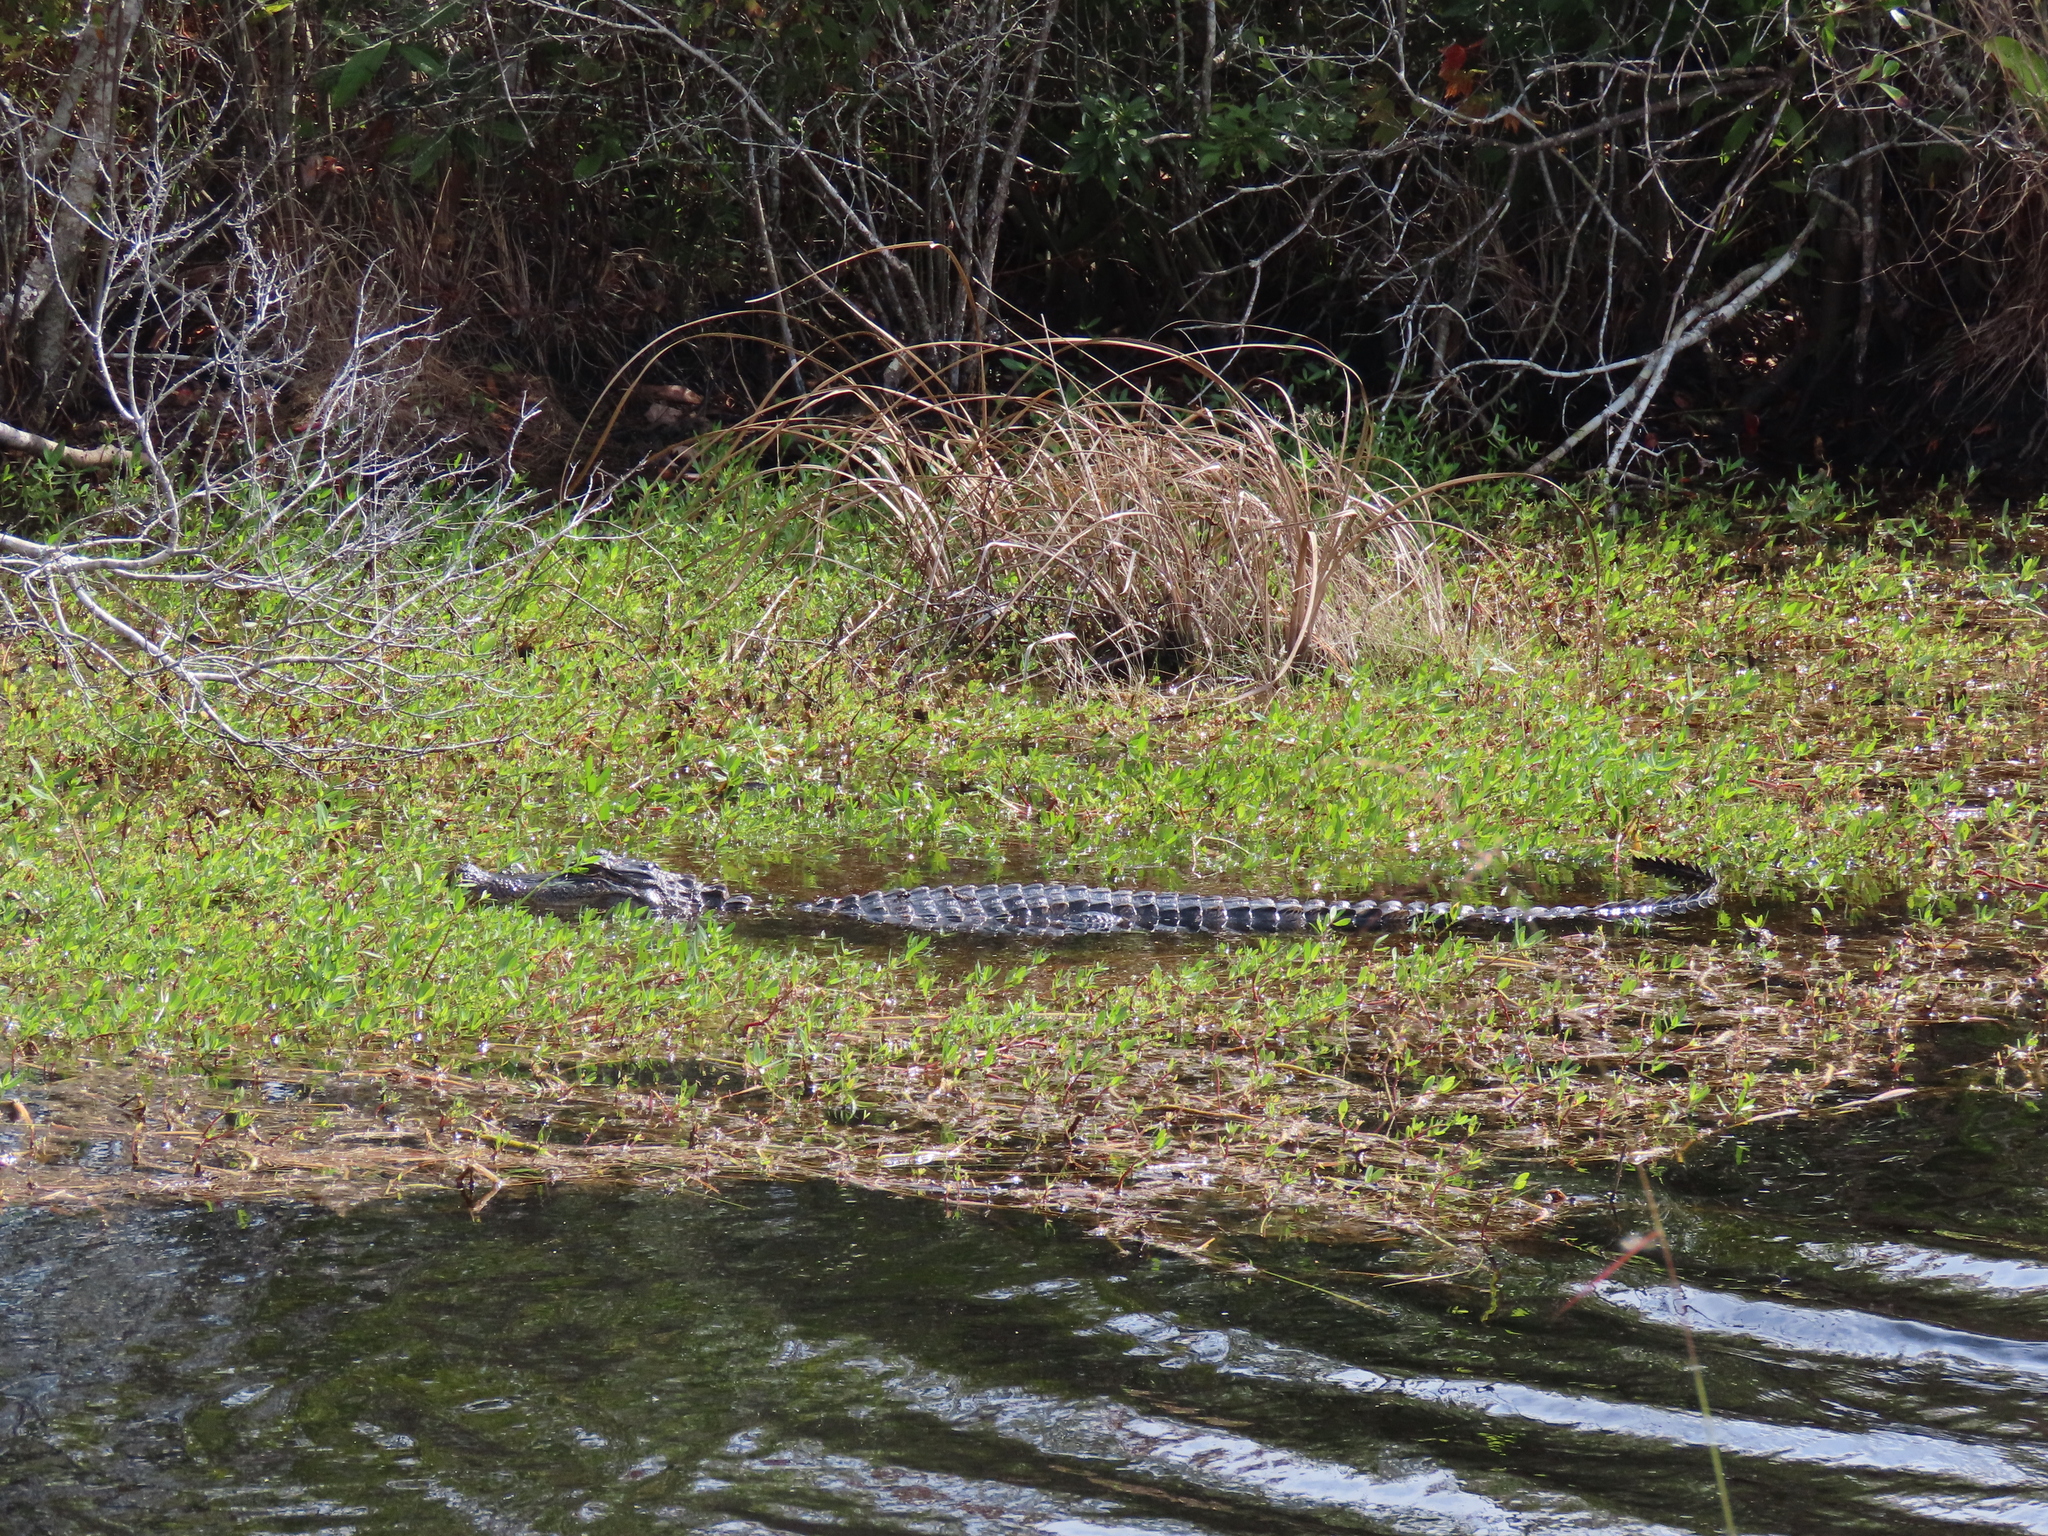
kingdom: Animalia
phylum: Chordata
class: Crocodylia
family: Alligatoridae
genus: Alligator
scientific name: Alligator mississippiensis
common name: American alligator
